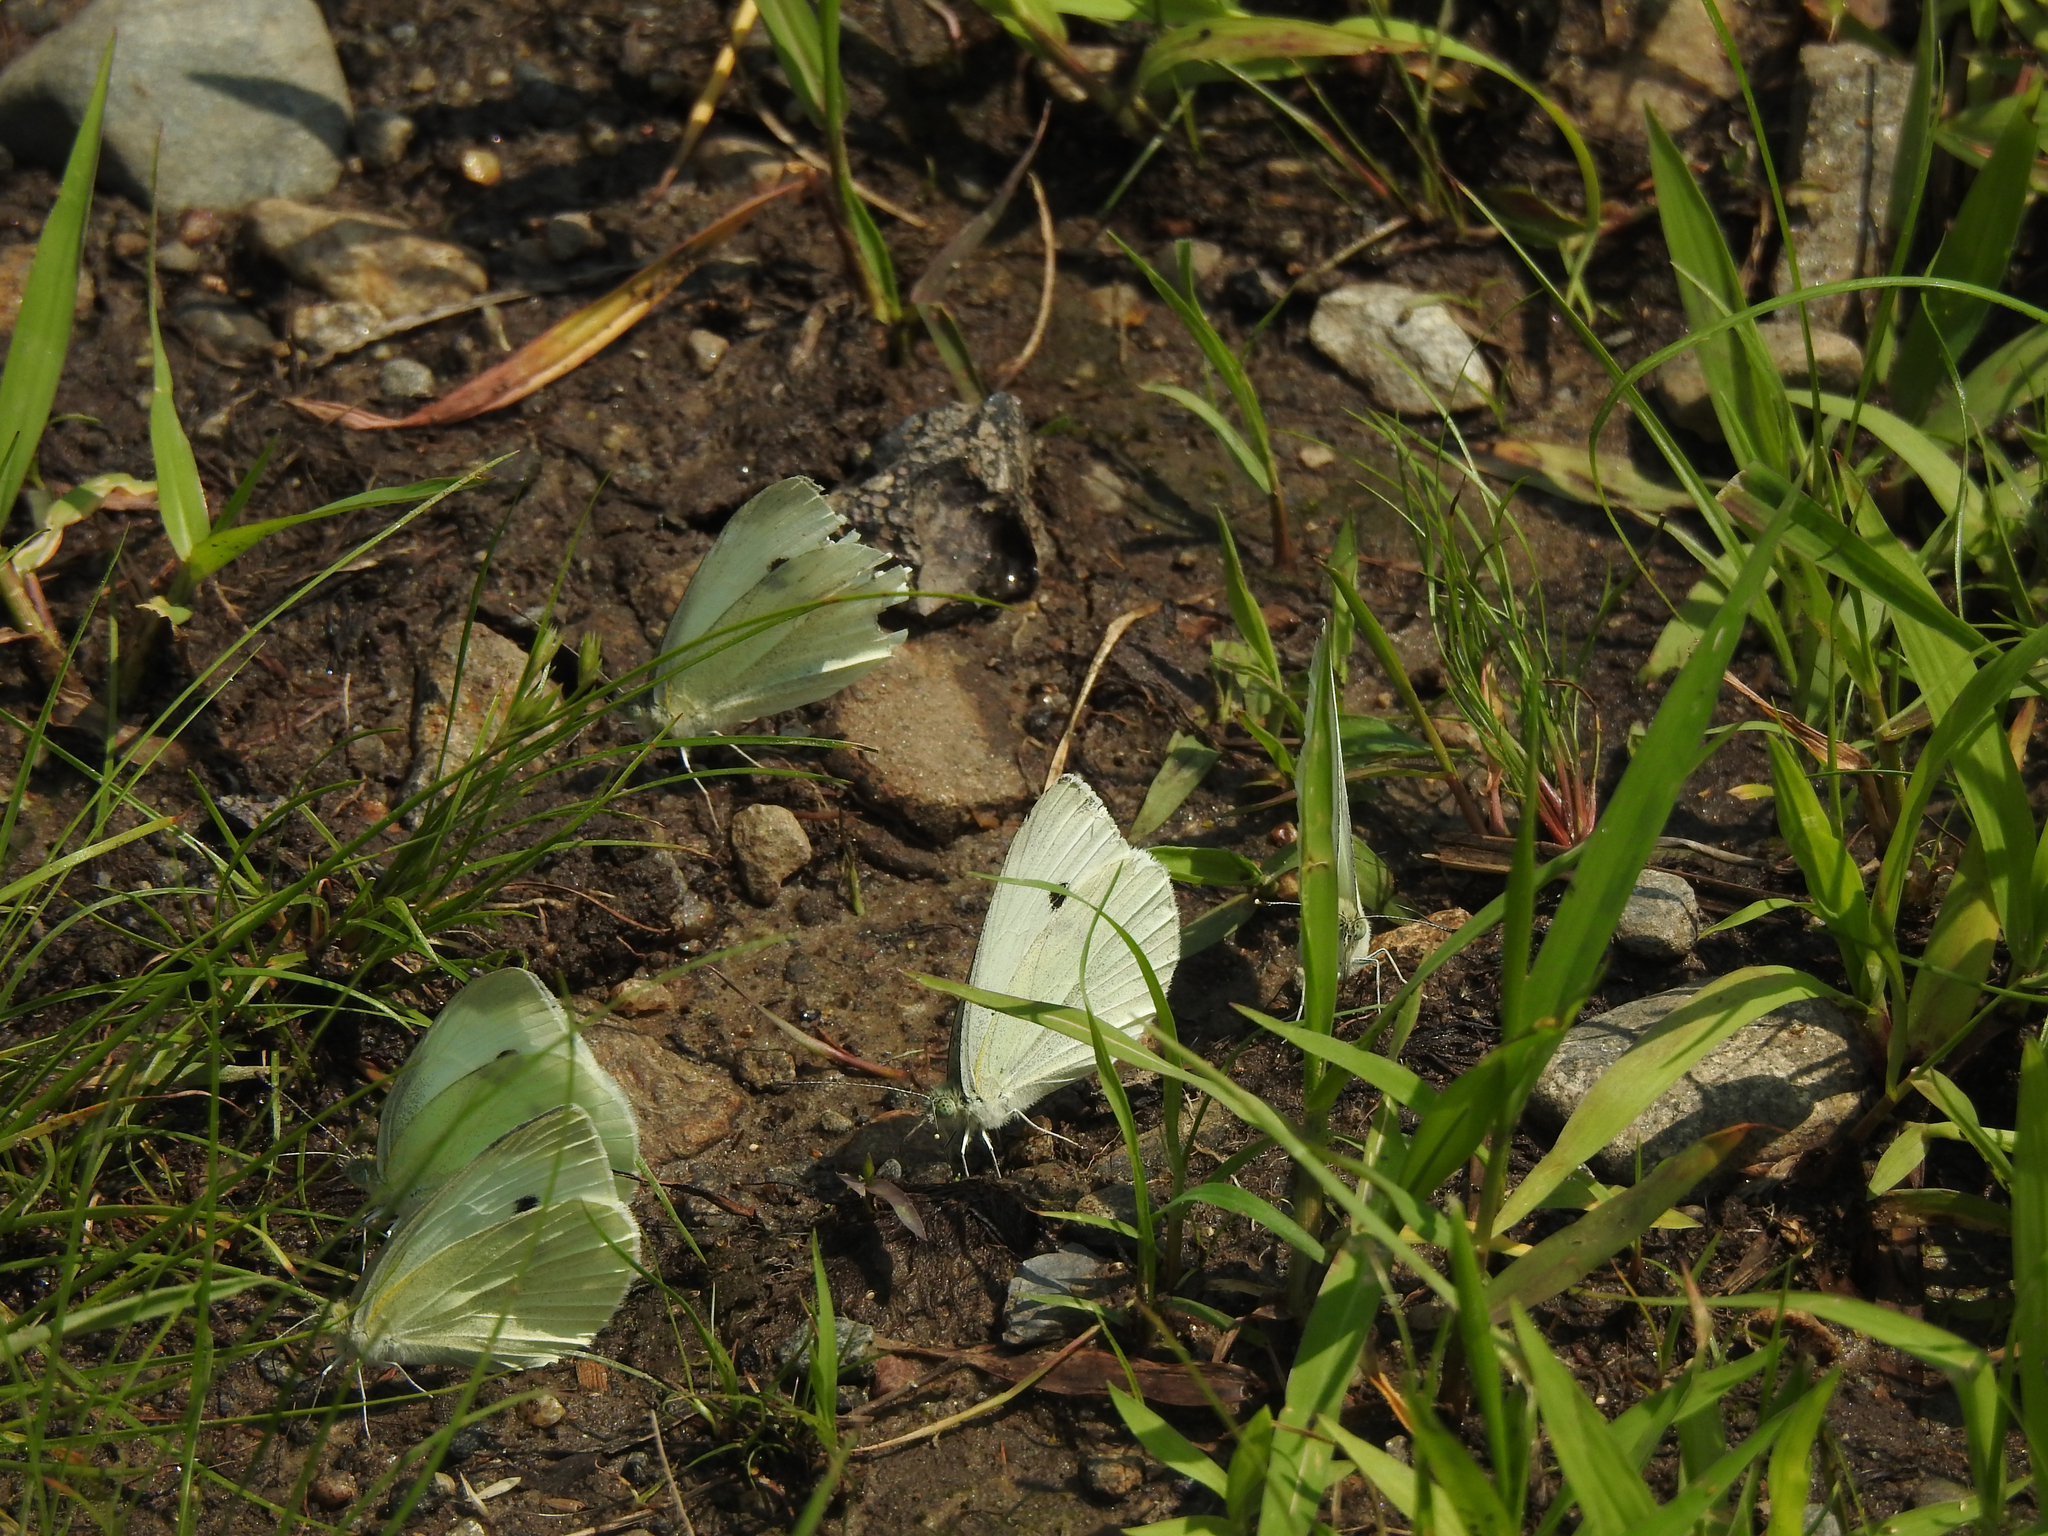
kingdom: Animalia
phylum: Arthropoda
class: Insecta
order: Lepidoptera
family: Pieridae
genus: Pieris
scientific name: Pieris rapae
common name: Small white
